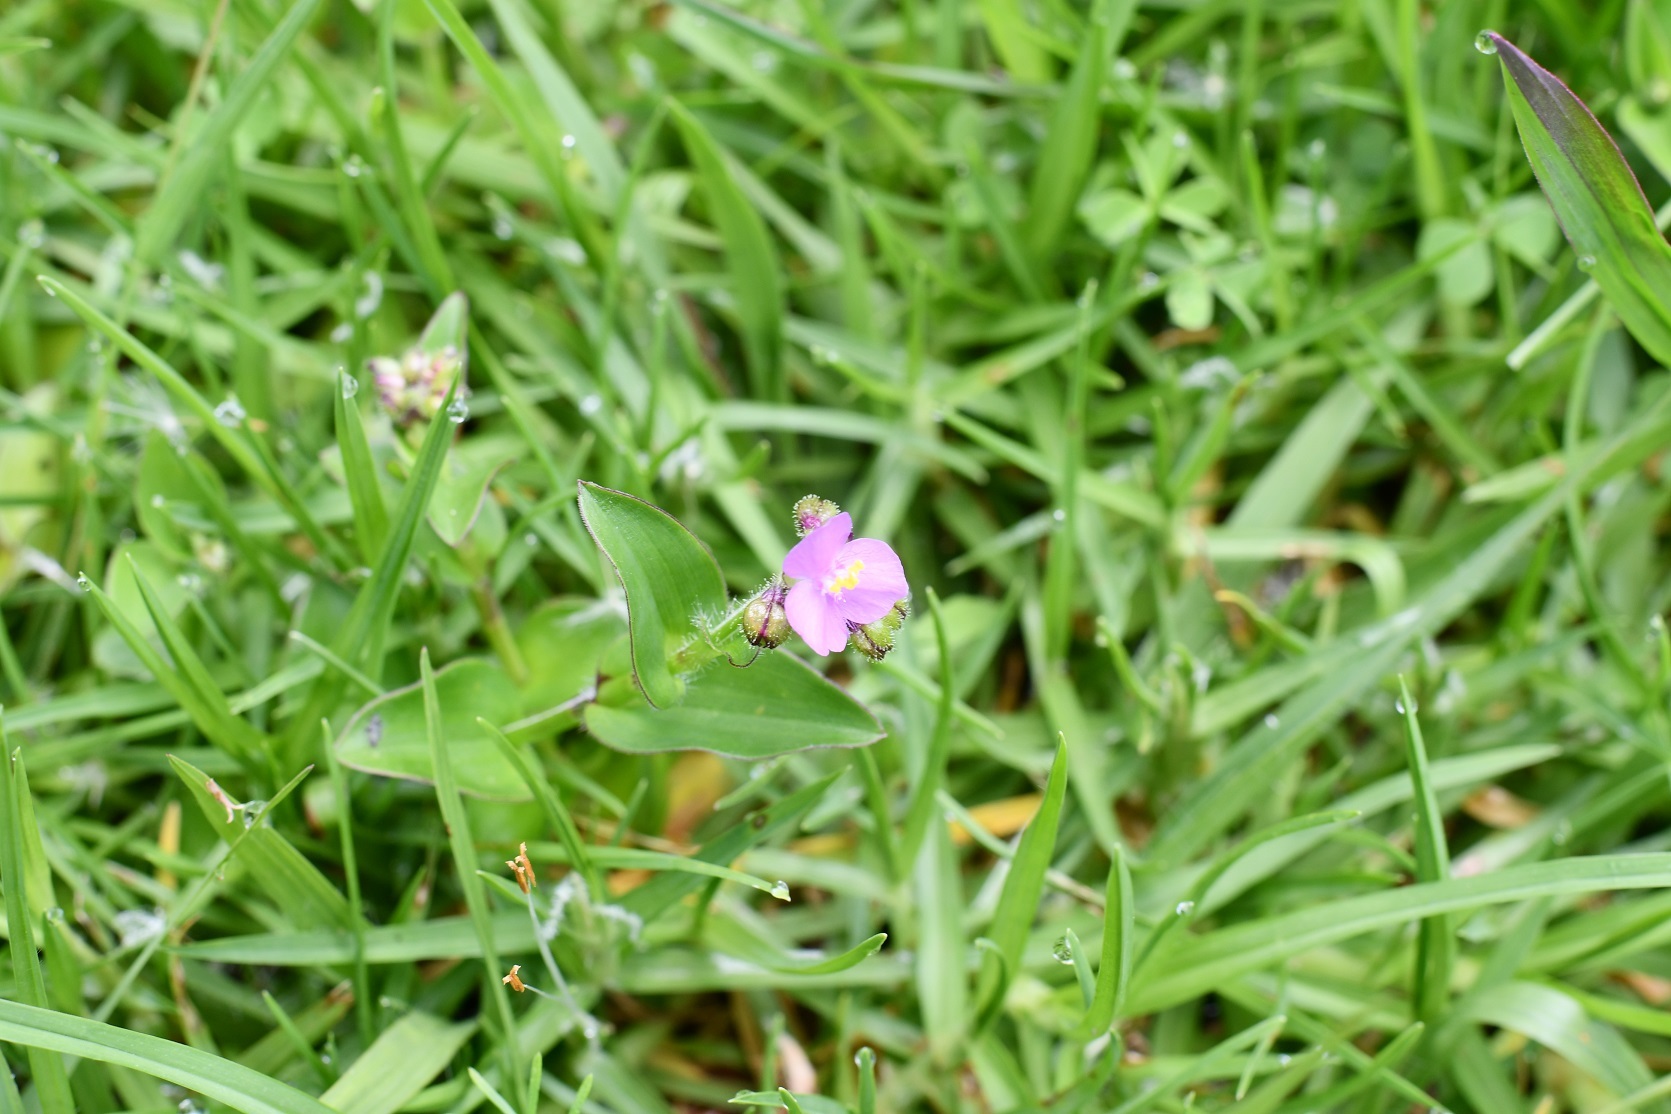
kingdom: Plantae
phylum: Tracheophyta
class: Liliopsida
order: Commelinales
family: Commelinaceae
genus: Callisia
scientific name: Callisia purpurascens
